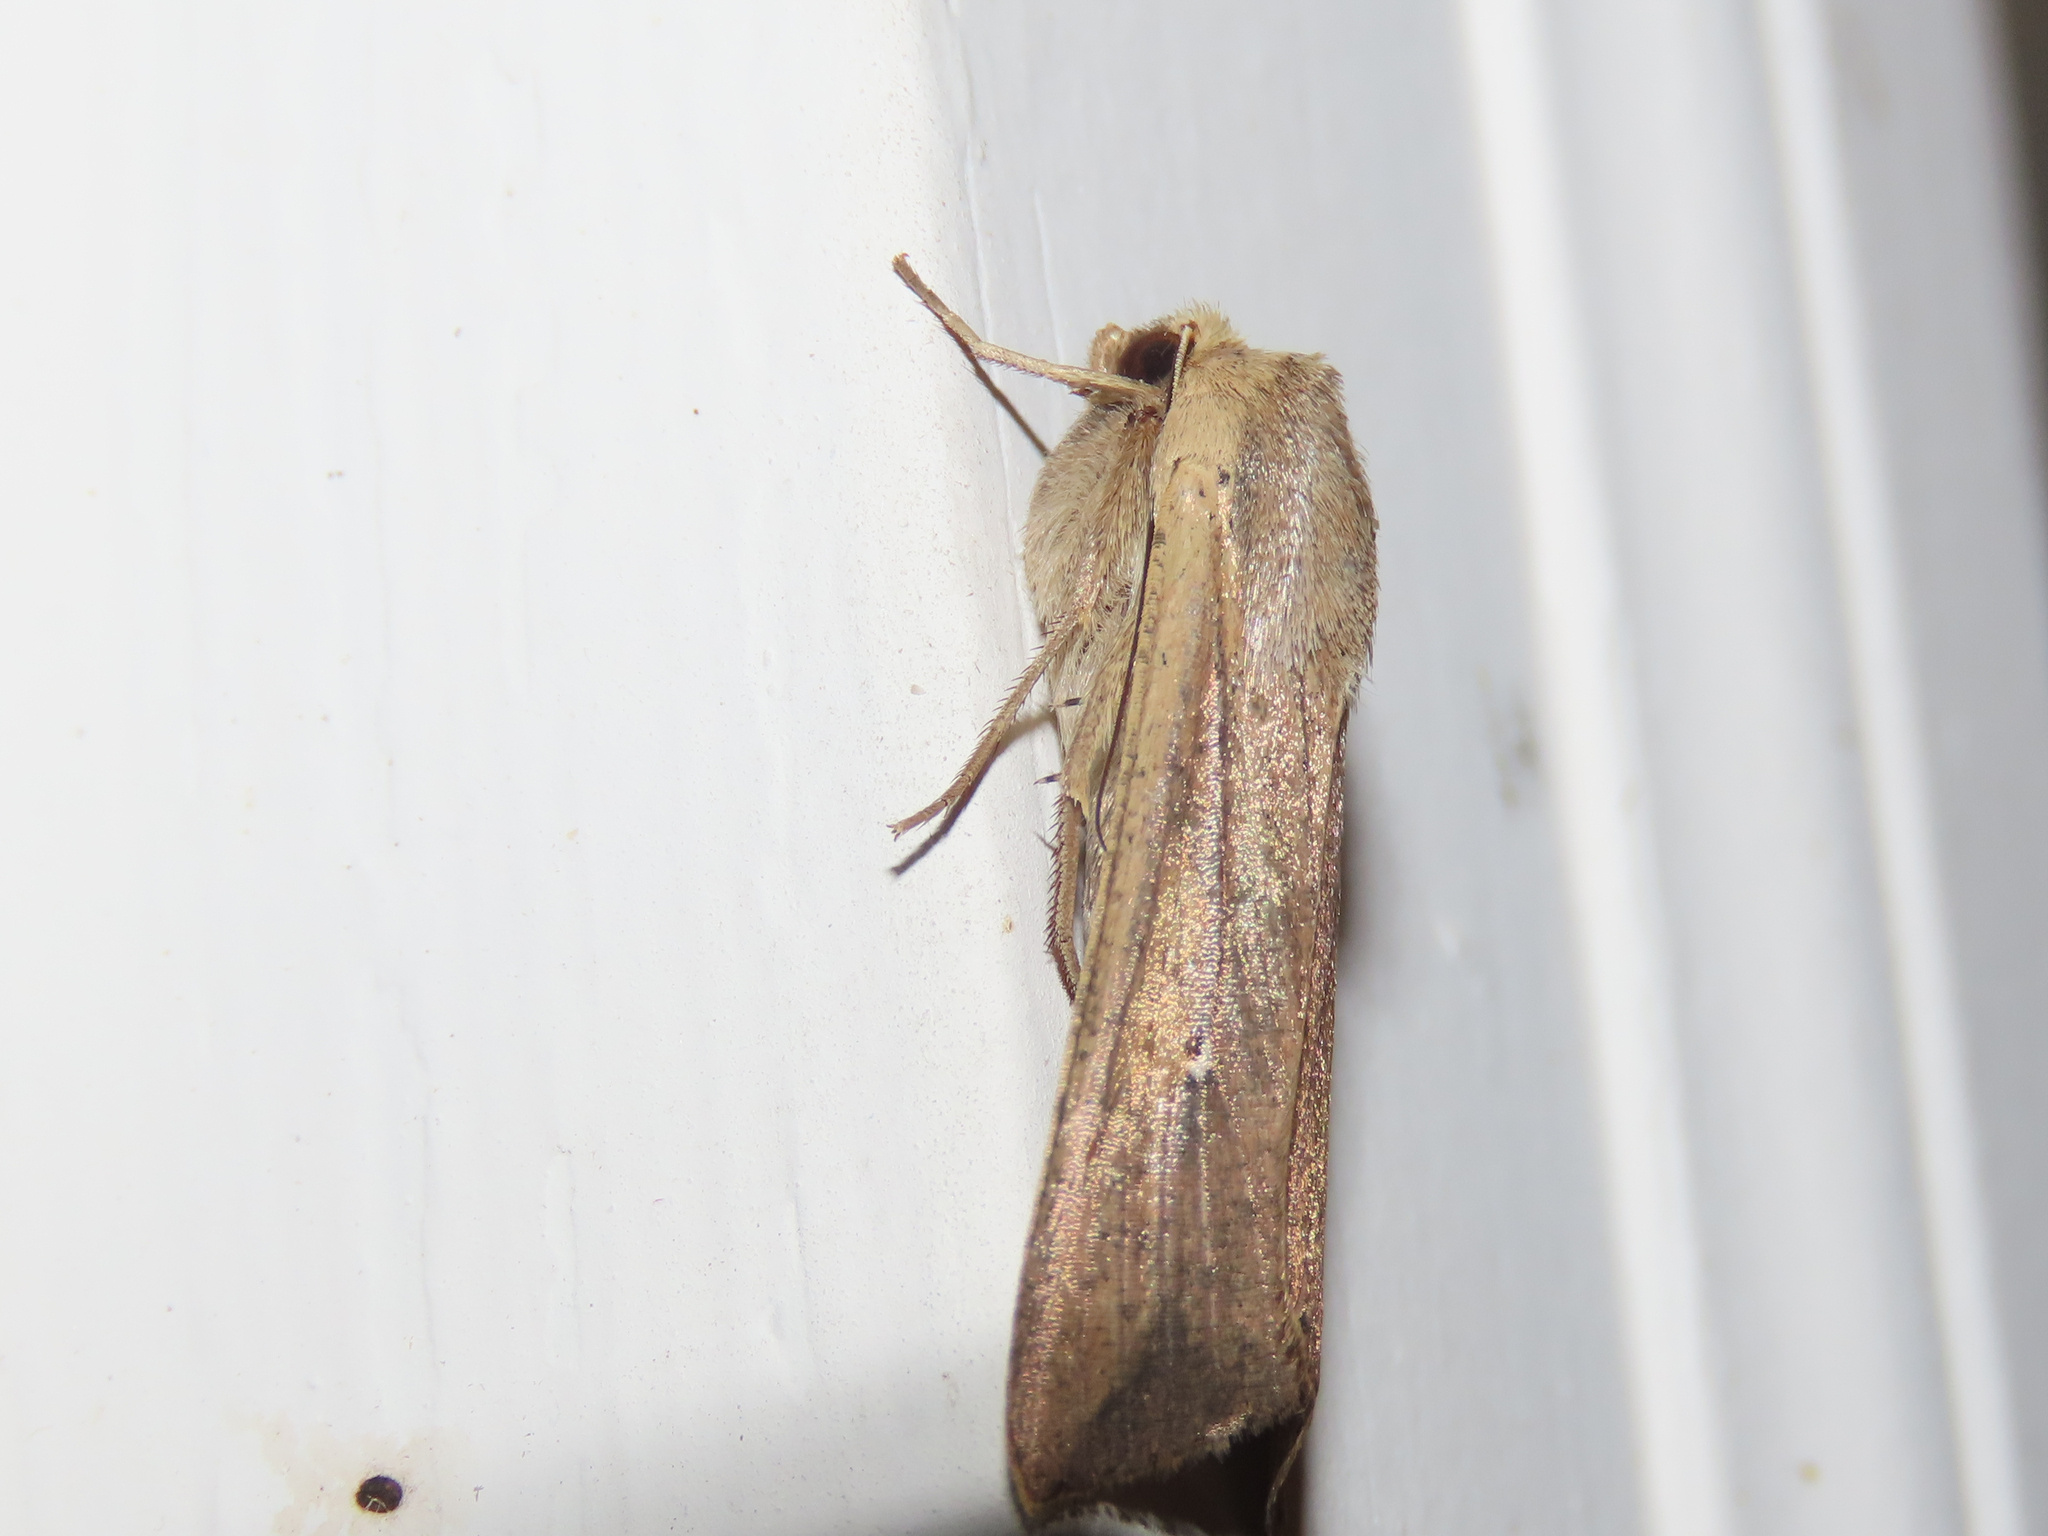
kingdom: Animalia
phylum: Arthropoda
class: Insecta
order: Lepidoptera
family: Noctuidae
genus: Mythimna
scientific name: Mythimna unipuncta
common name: White-speck
